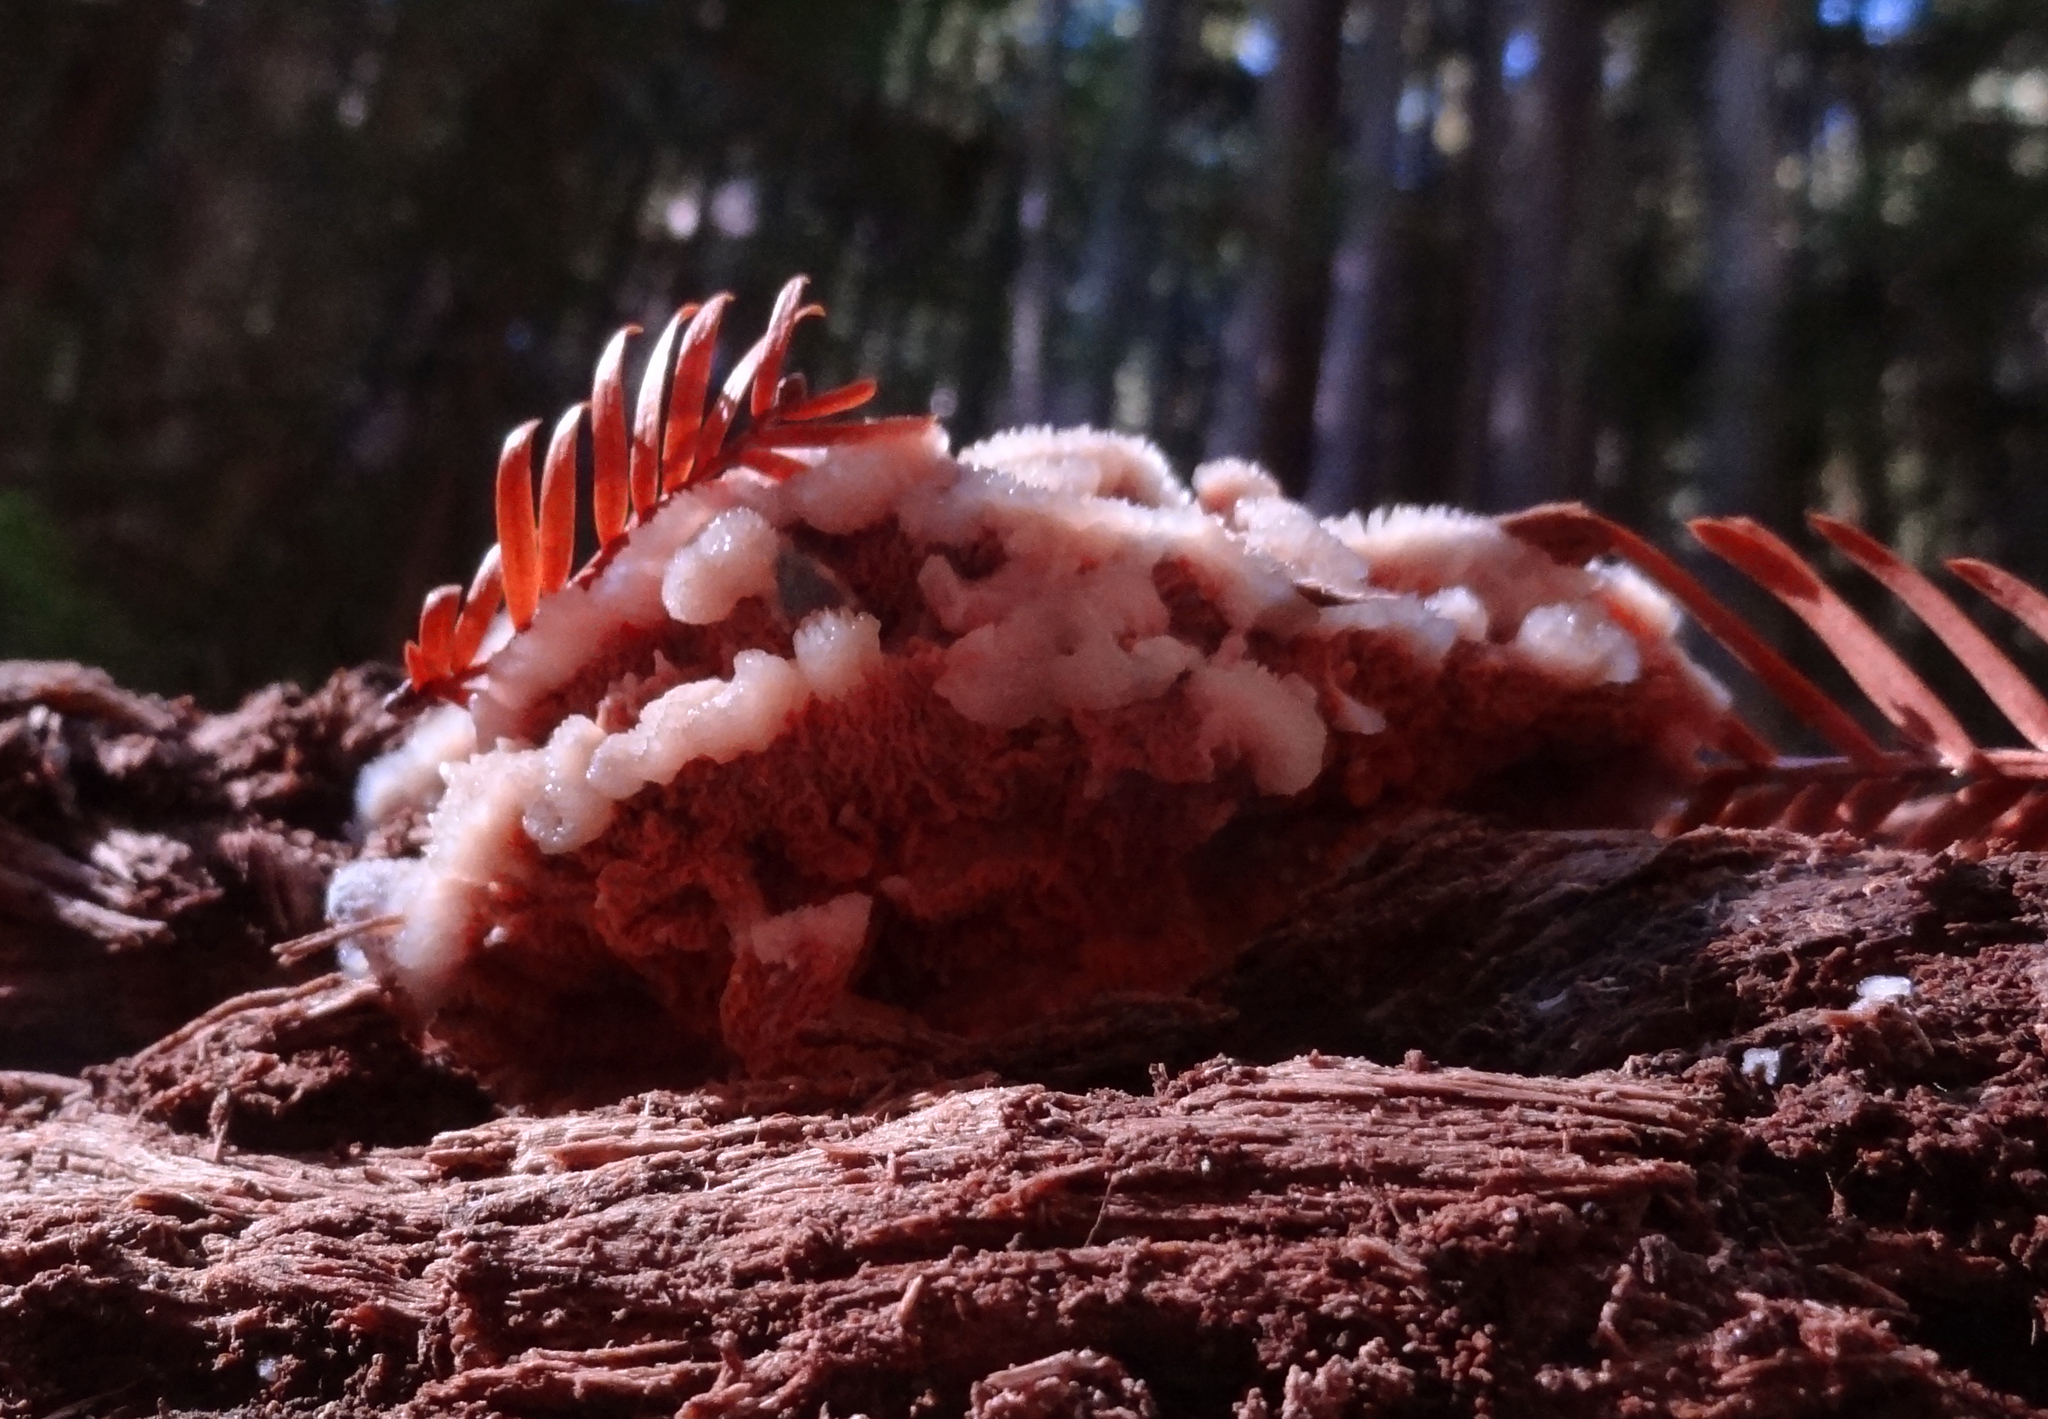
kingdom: Fungi
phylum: Basidiomycota
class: Agaricomycetes
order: Polyporales
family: Meruliaceae
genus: Phlebia
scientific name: Phlebia tremellosa
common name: Jelly rot
